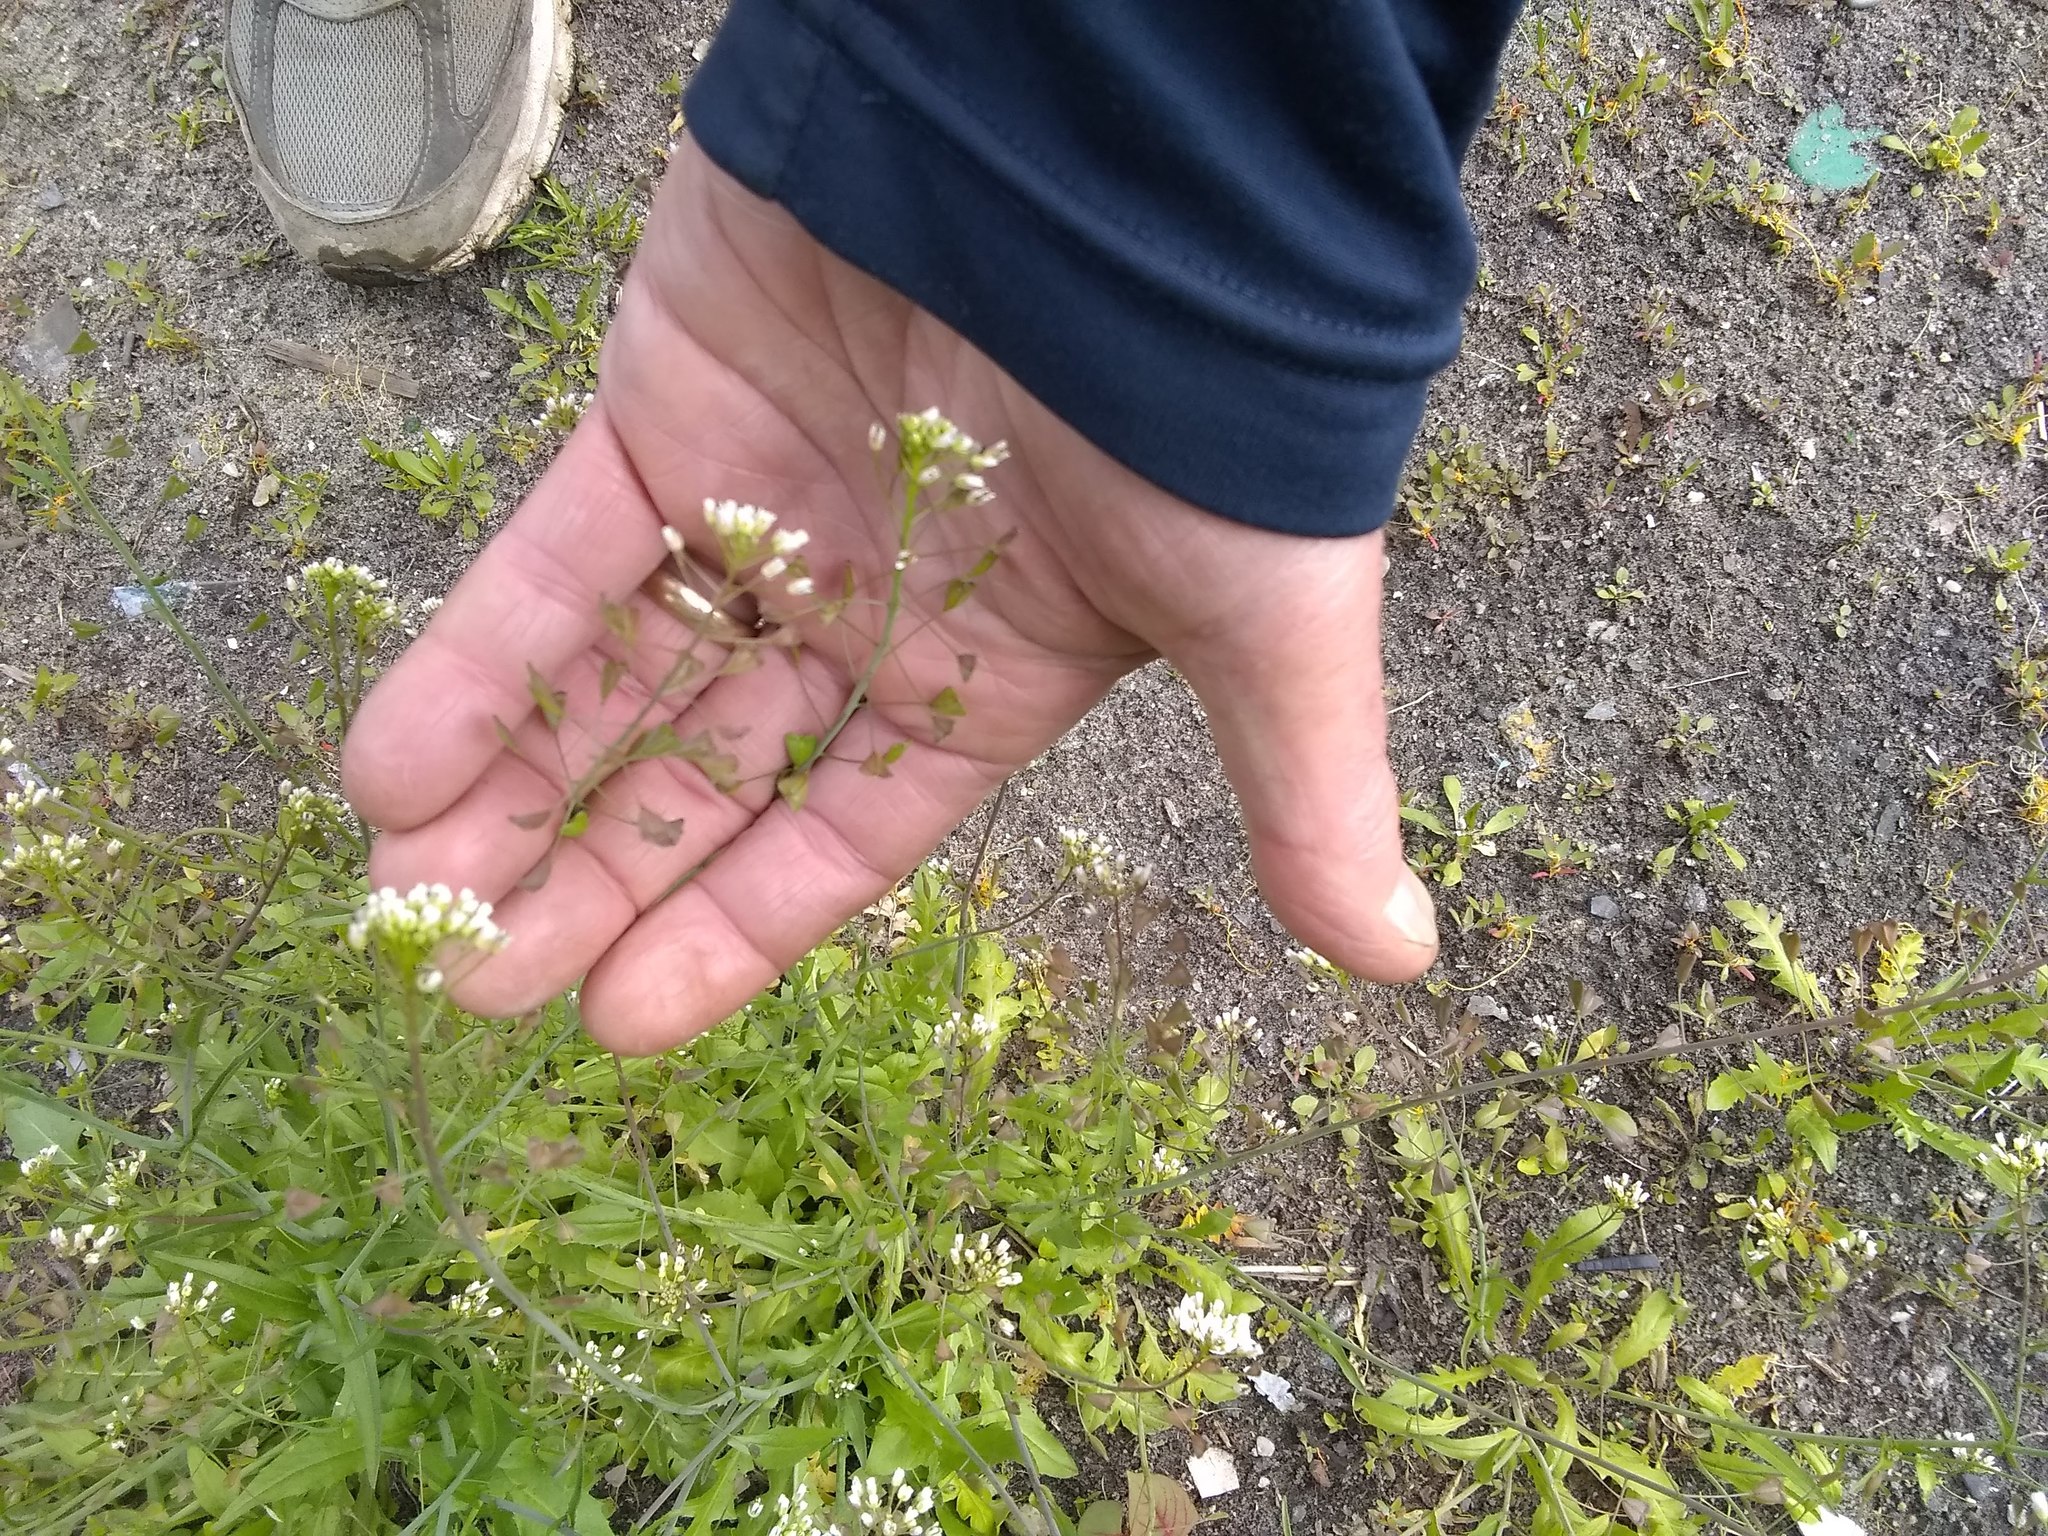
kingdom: Plantae
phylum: Tracheophyta
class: Magnoliopsida
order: Brassicales
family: Brassicaceae
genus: Capsella
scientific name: Capsella bursa-pastoris
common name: Shepherd's purse
